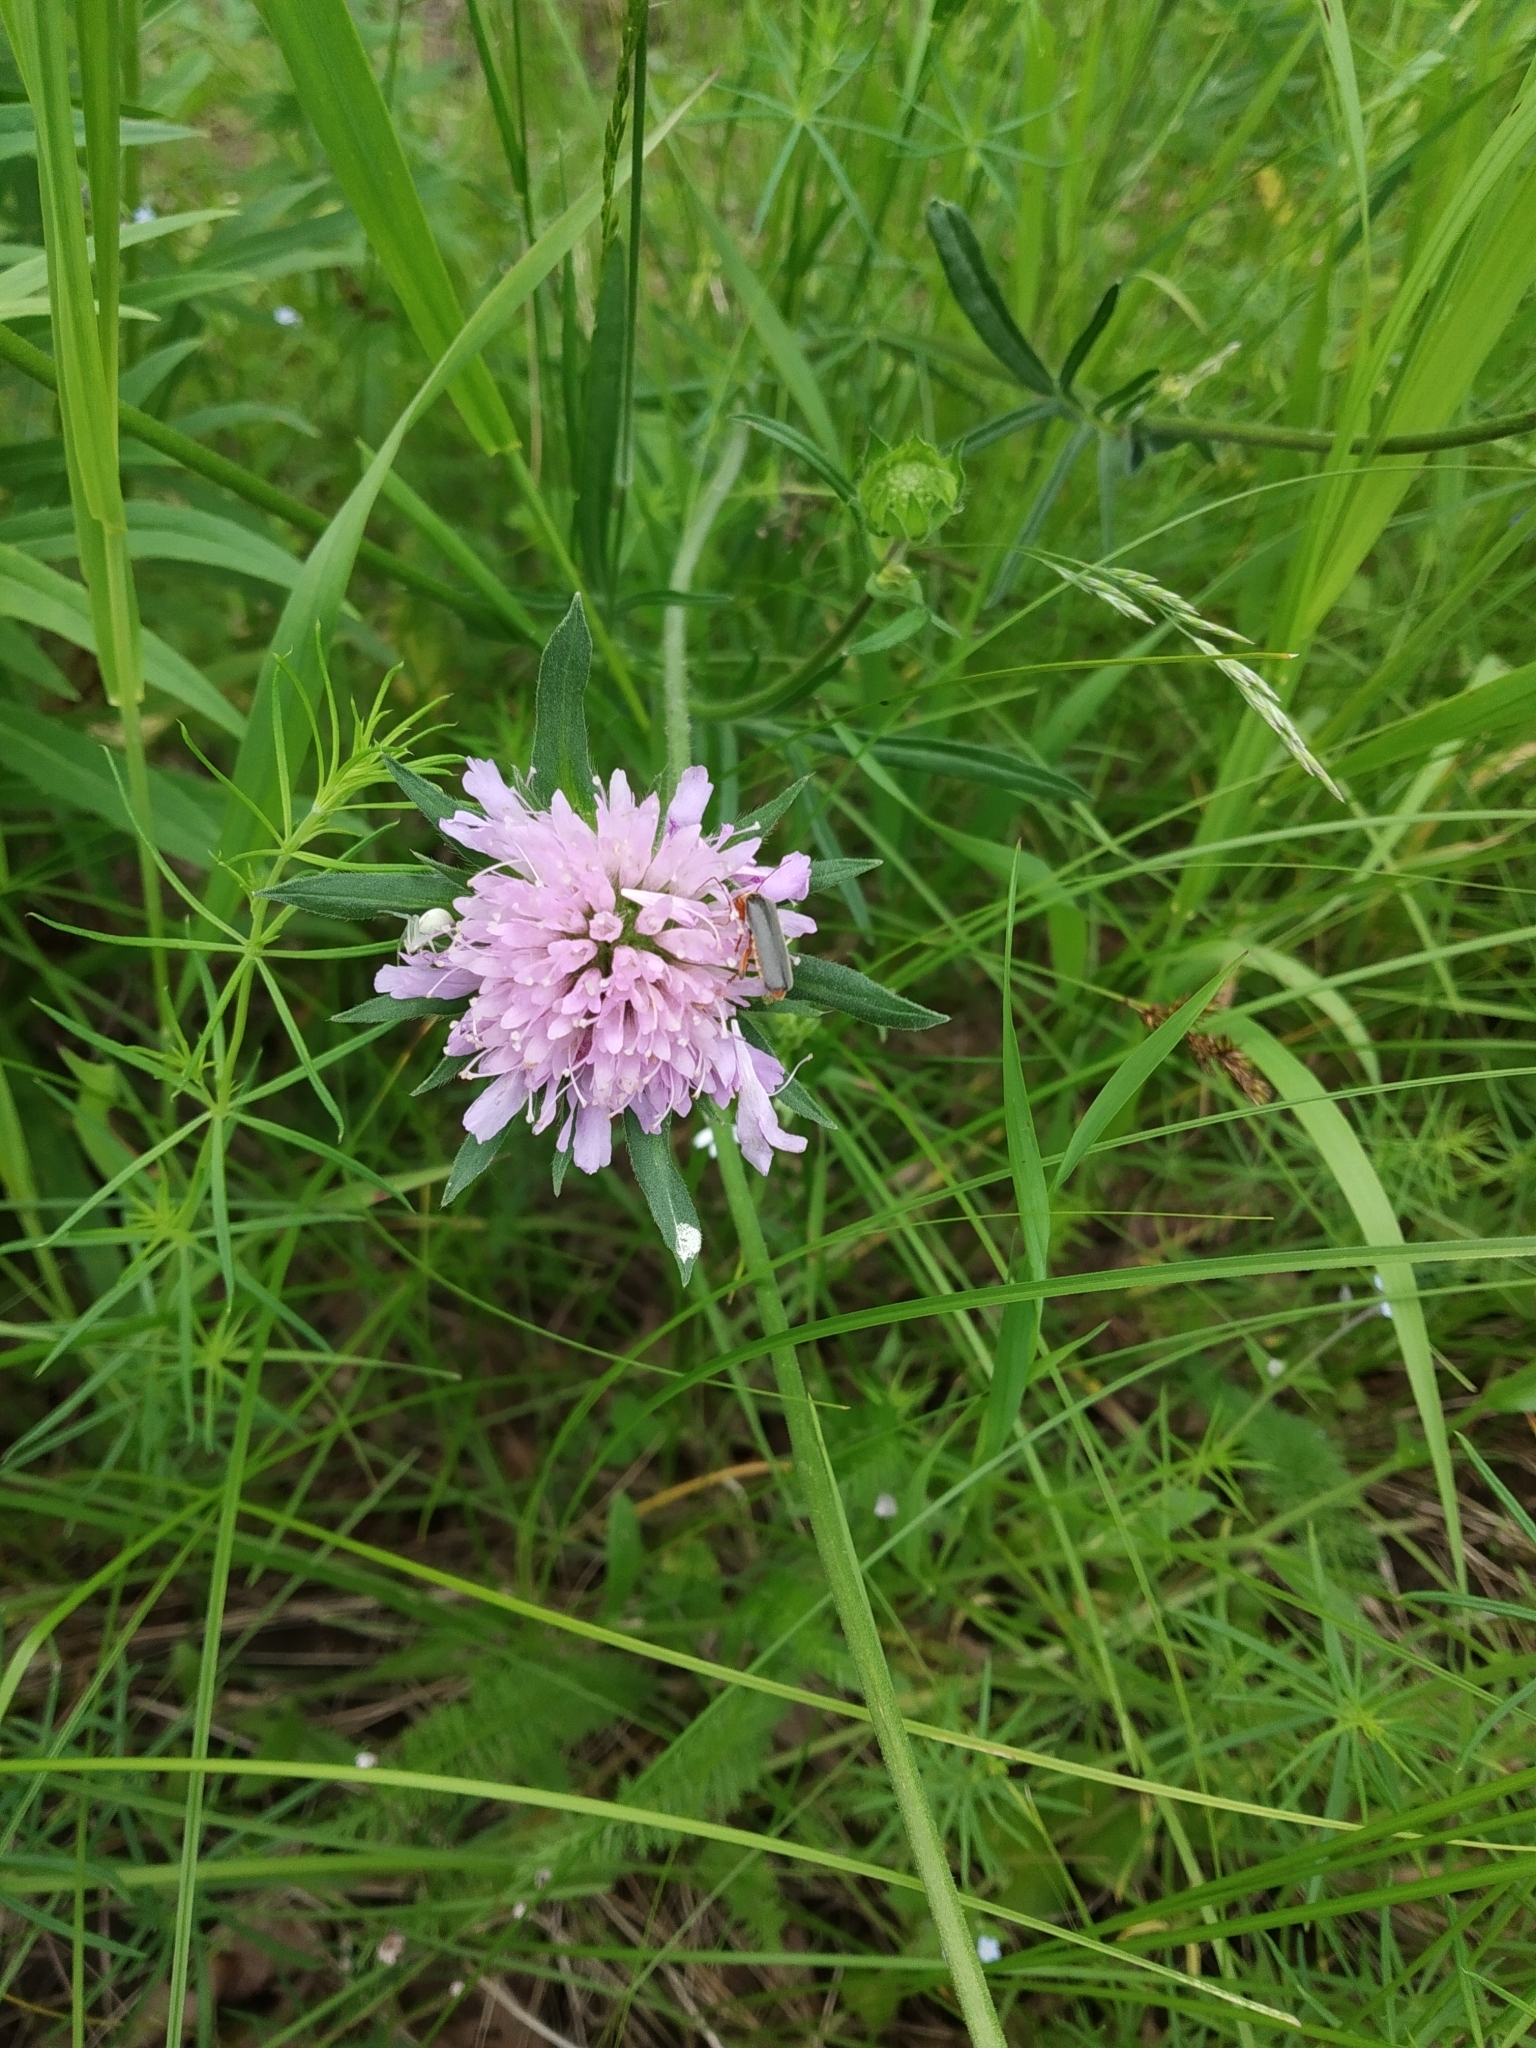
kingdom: Plantae
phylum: Tracheophyta
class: Magnoliopsida
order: Dipsacales
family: Caprifoliaceae
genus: Knautia
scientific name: Knautia arvensis
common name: Field scabiosa
